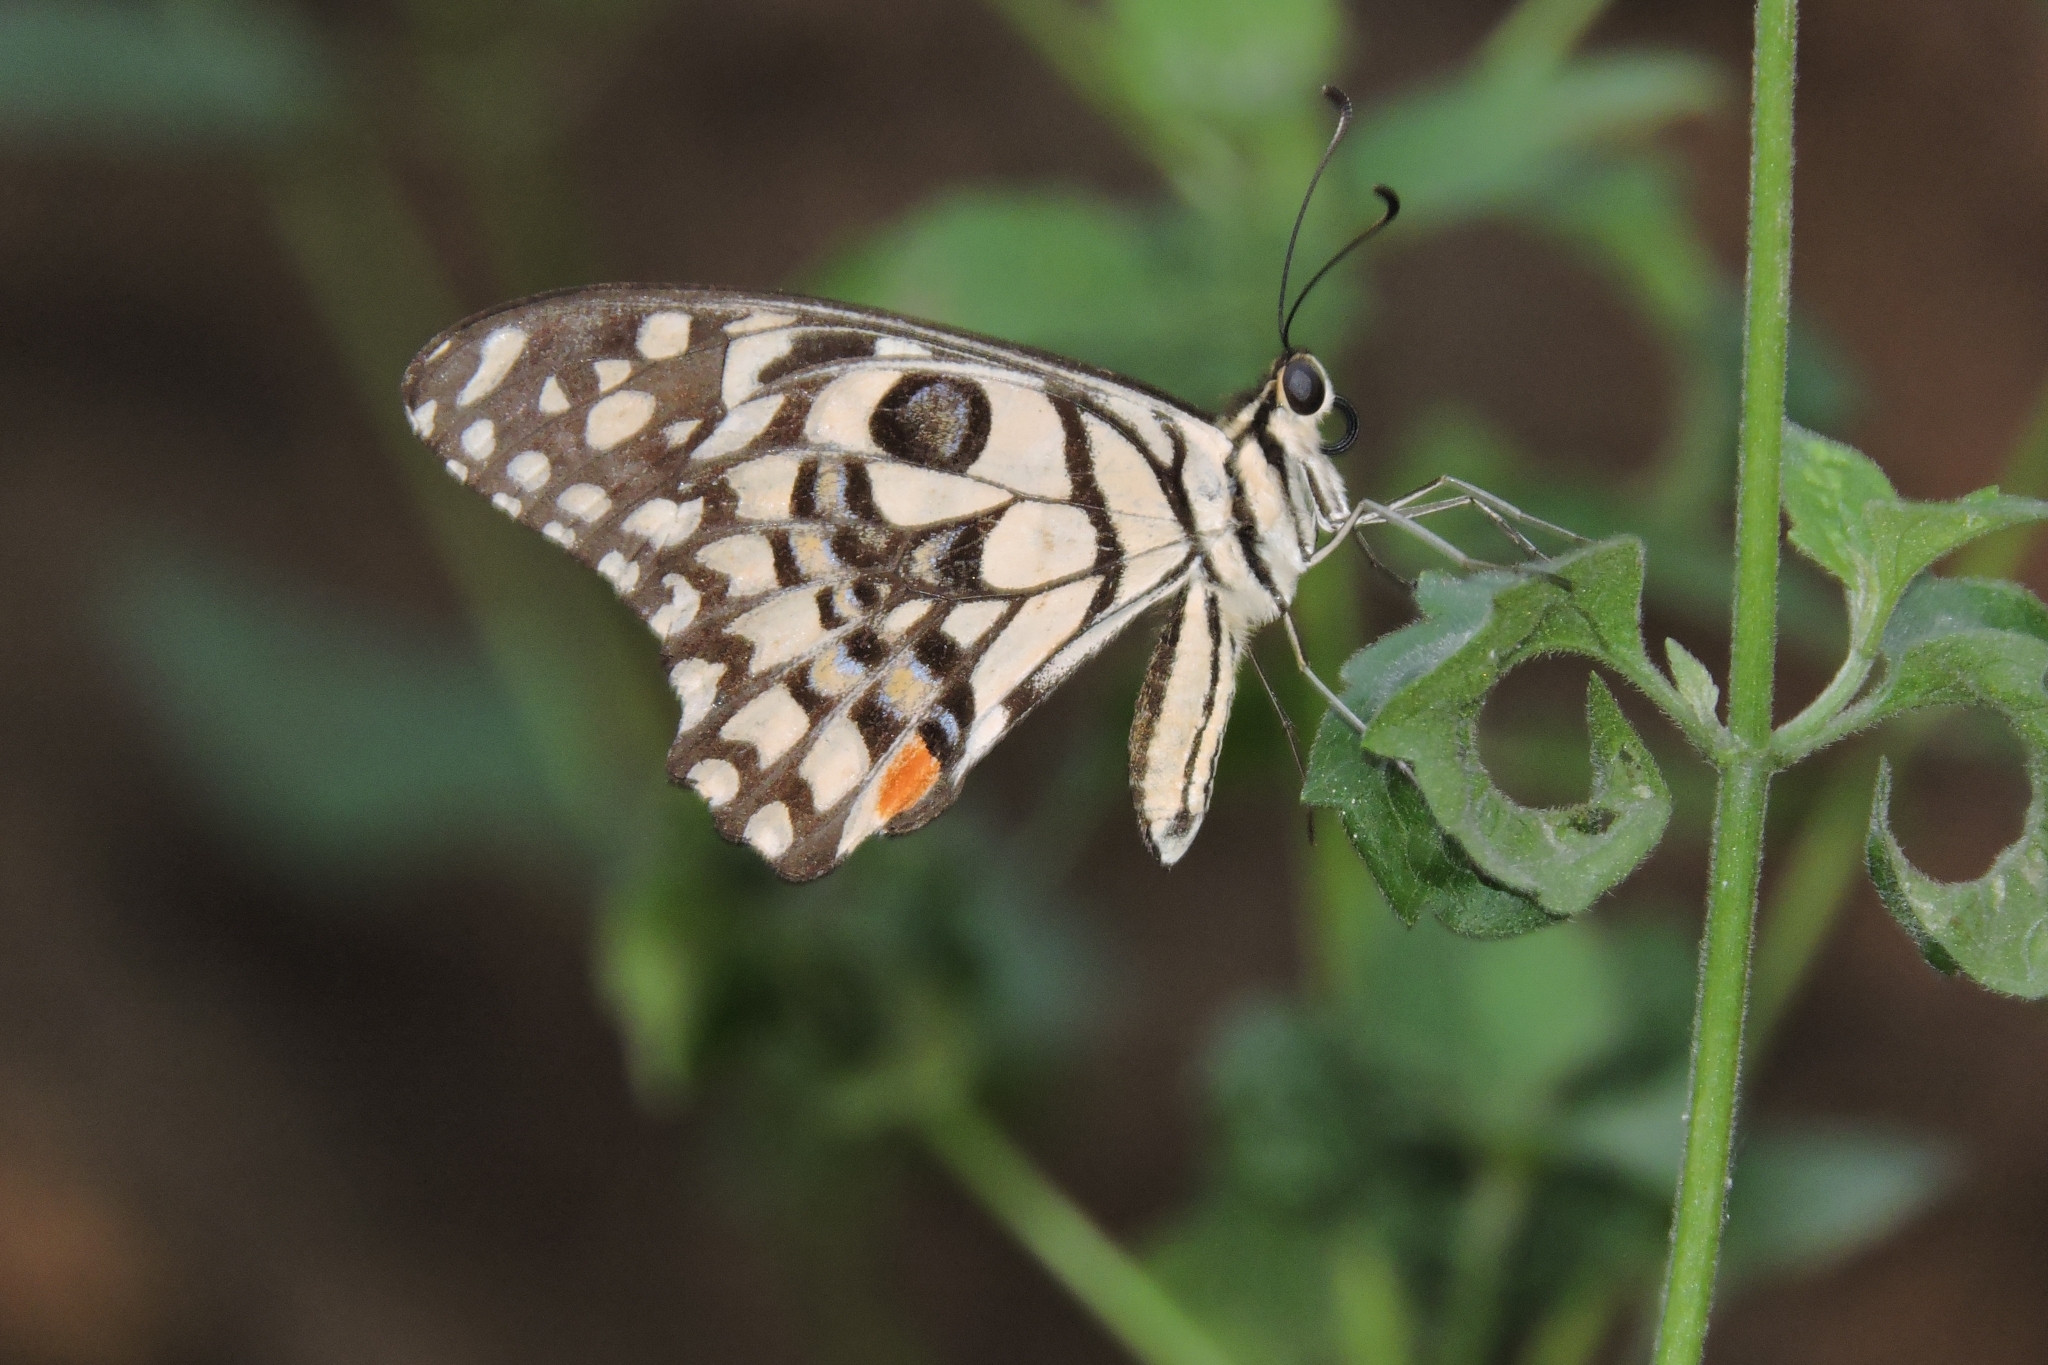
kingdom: Animalia
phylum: Arthropoda
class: Insecta
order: Lepidoptera
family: Papilionidae
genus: Papilio
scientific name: Papilio demoleus
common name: Lime butterfly
